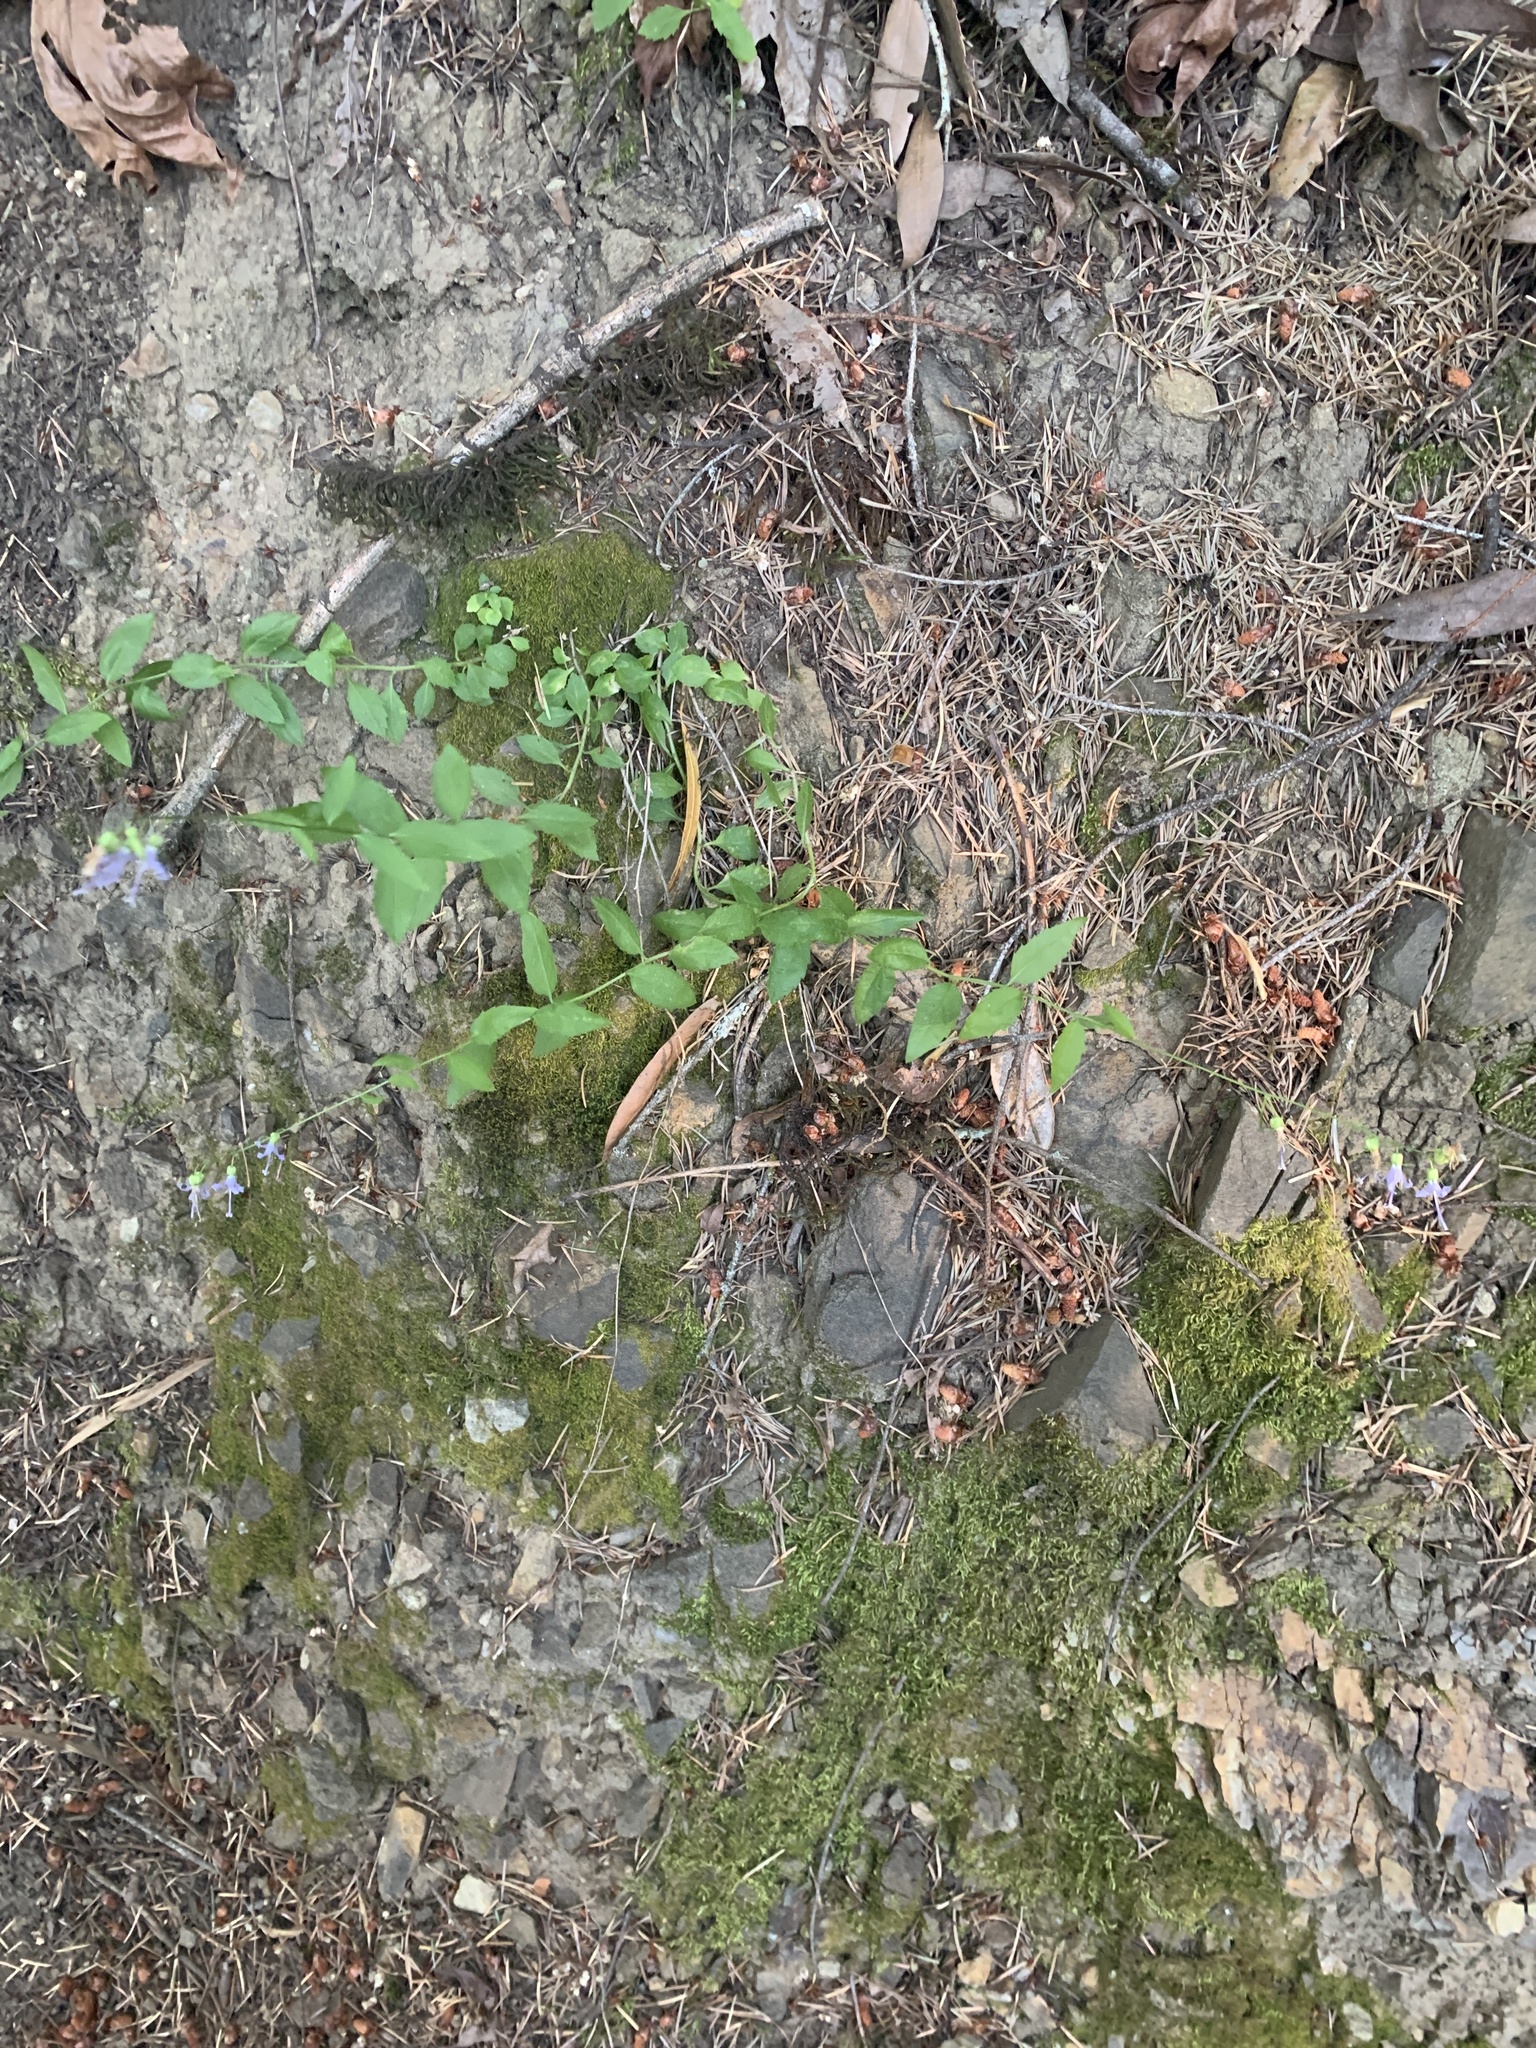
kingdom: Plantae
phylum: Tracheophyta
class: Magnoliopsida
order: Asterales
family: Campanulaceae
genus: Smithiastrum
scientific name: Smithiastrum prenanthoides
